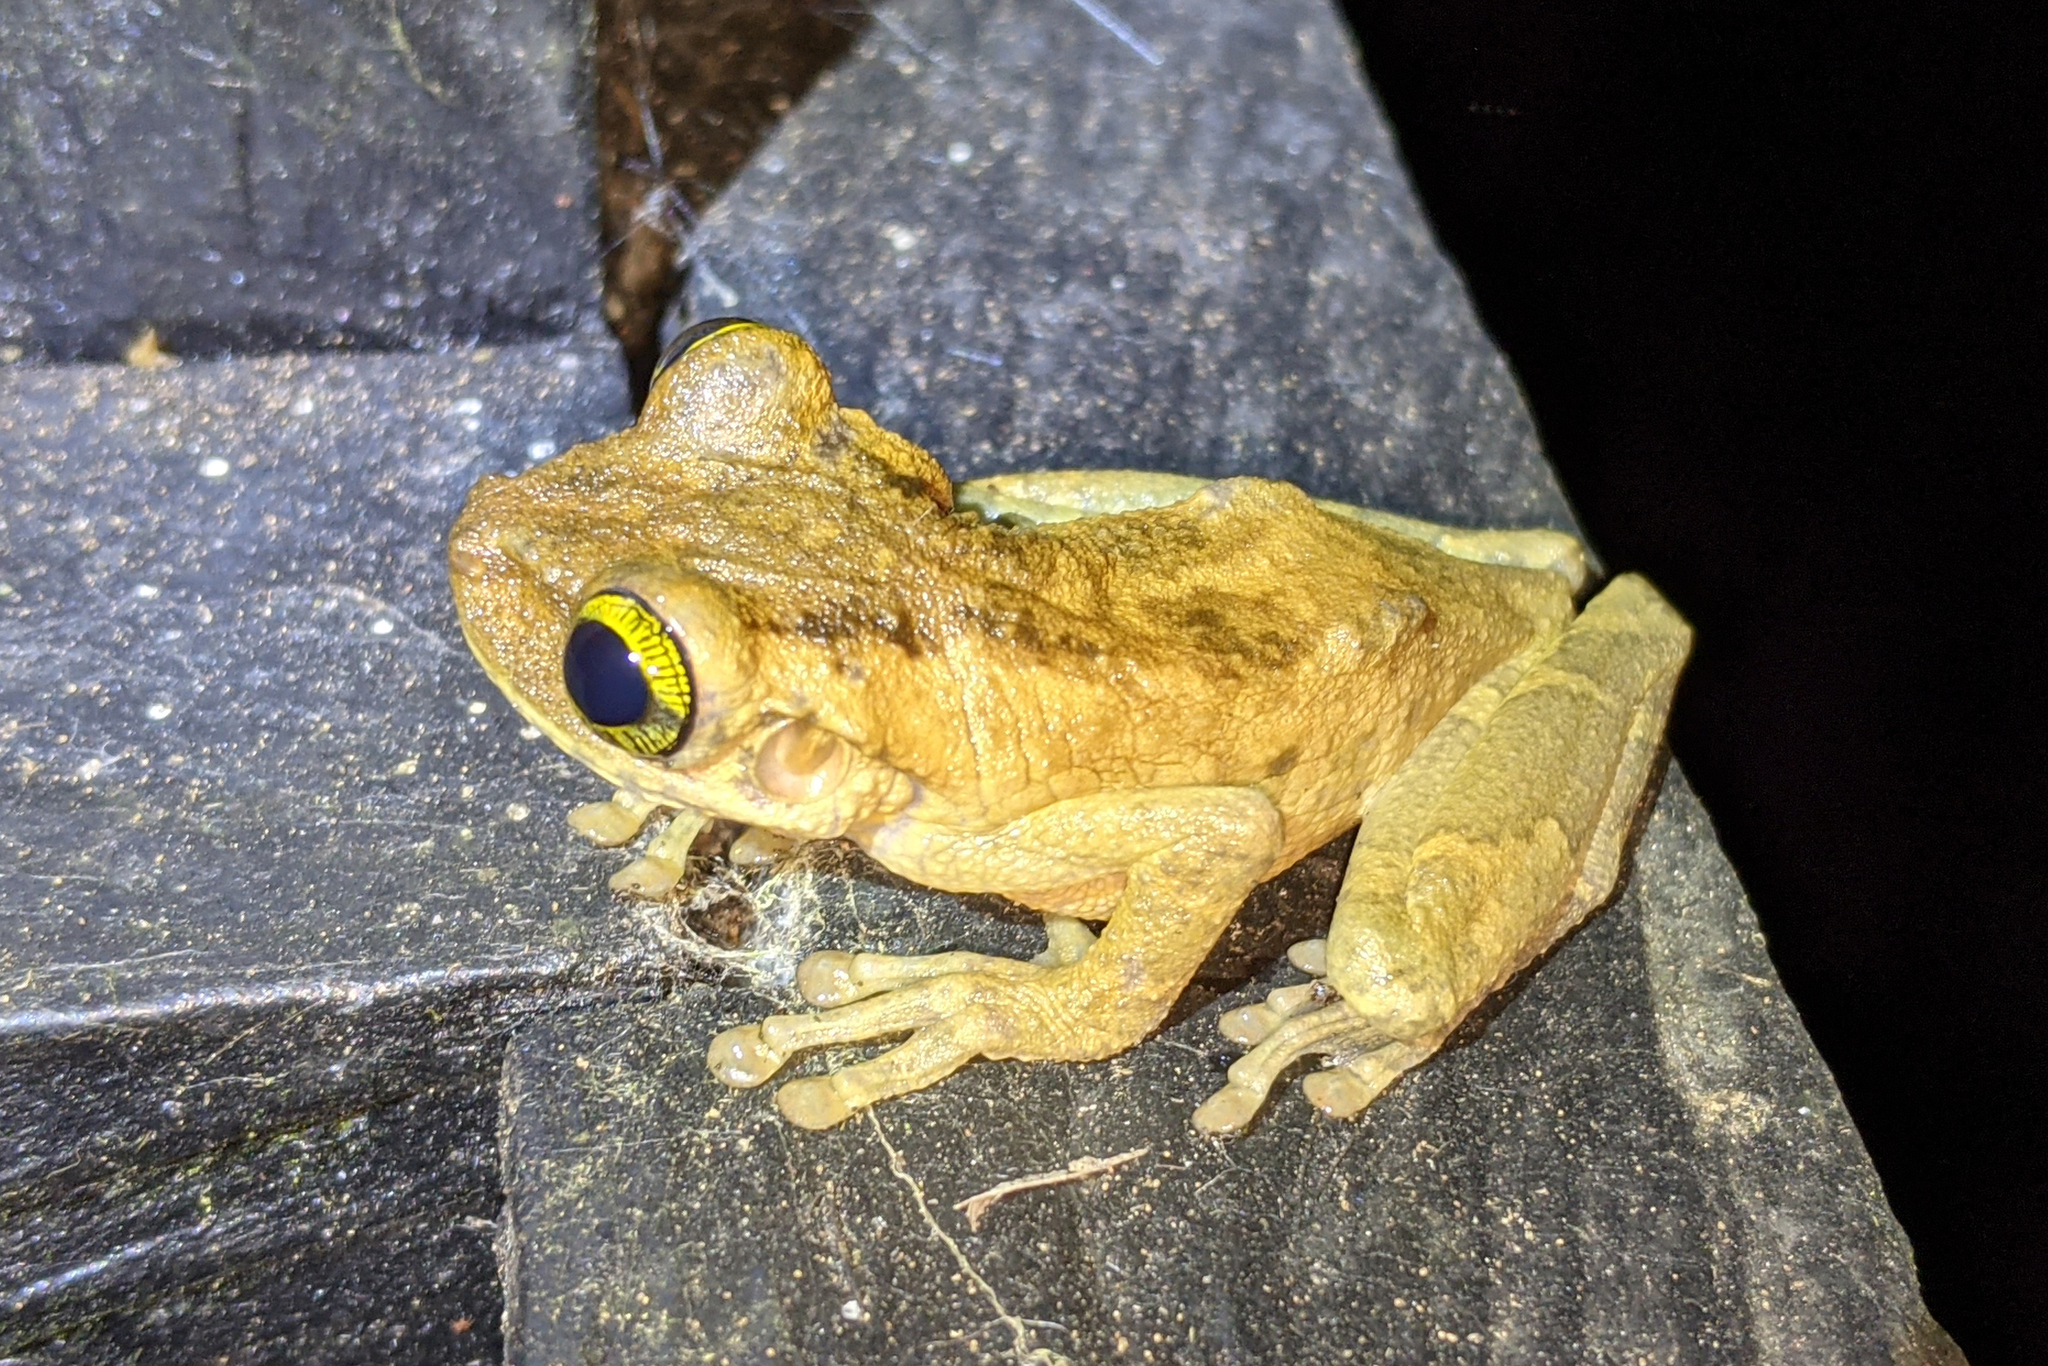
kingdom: Animalia
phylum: Chordata
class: Amphibia
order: Anura
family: Hylidae
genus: Osteocephalus
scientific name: Osteocephalus taurinus
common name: Manaus slender-legged treefrog
